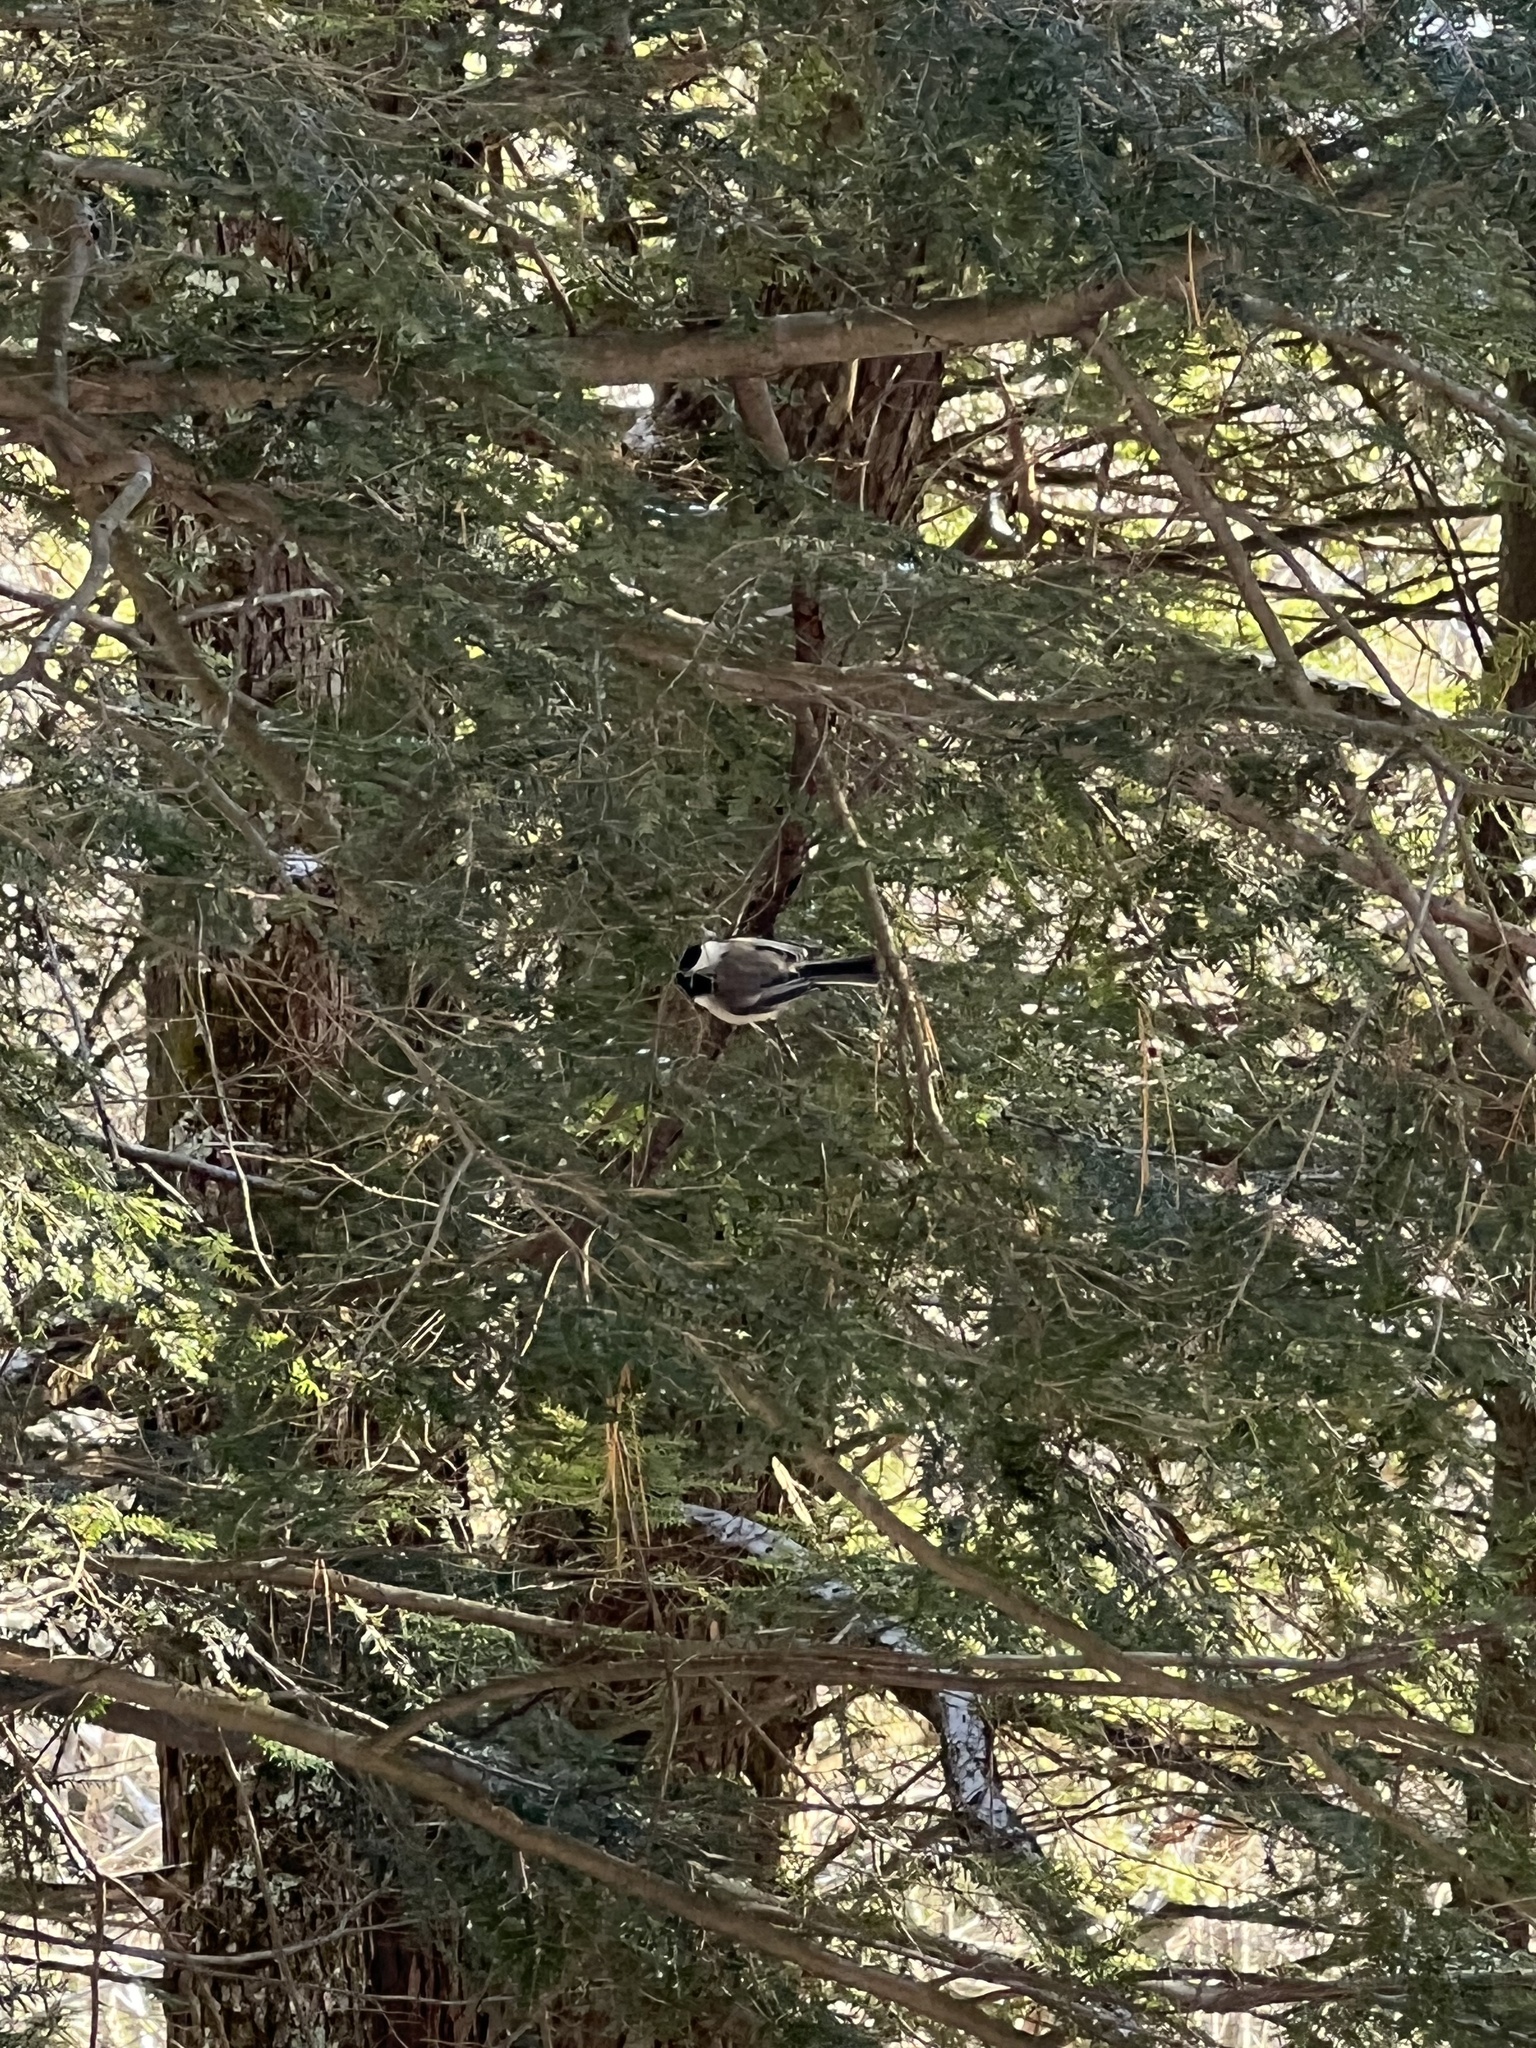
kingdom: Animalia
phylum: Chordata
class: Aves
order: Passeriformes
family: Paridae
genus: Poecile
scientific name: Poecile atricapillus
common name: Black-capped chickadee
